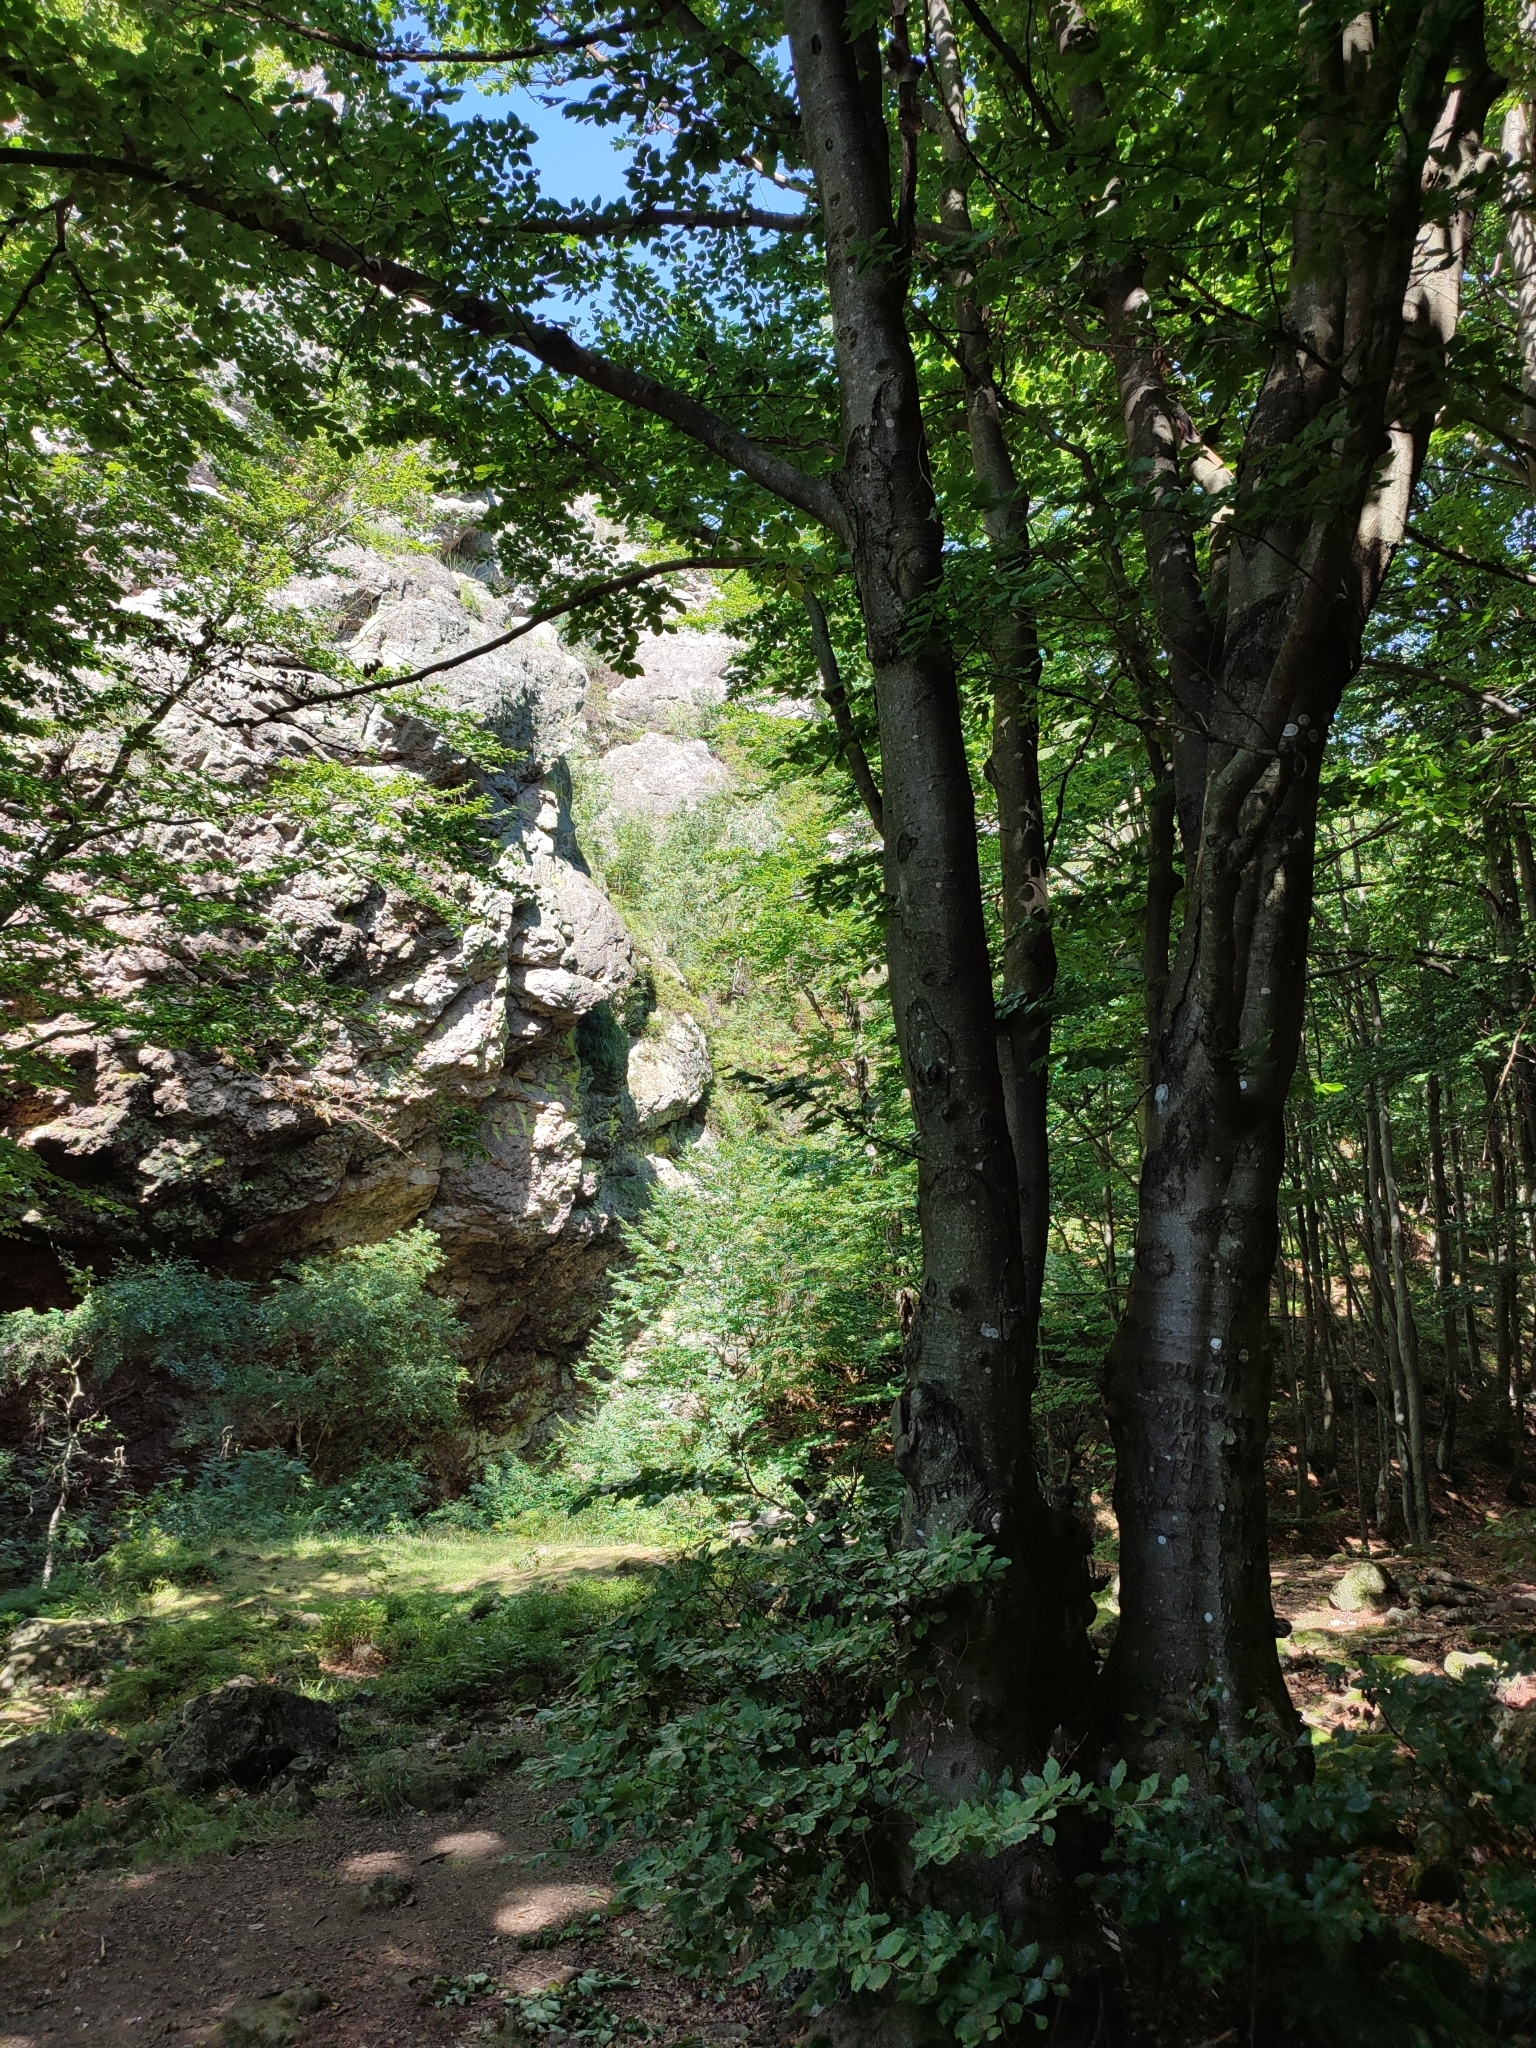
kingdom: Plantae
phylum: Tracheophyta
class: Magnoliopsida
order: Fagales
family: Fagaceae
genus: Fagus
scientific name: Fagus sylvatica
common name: Beech
